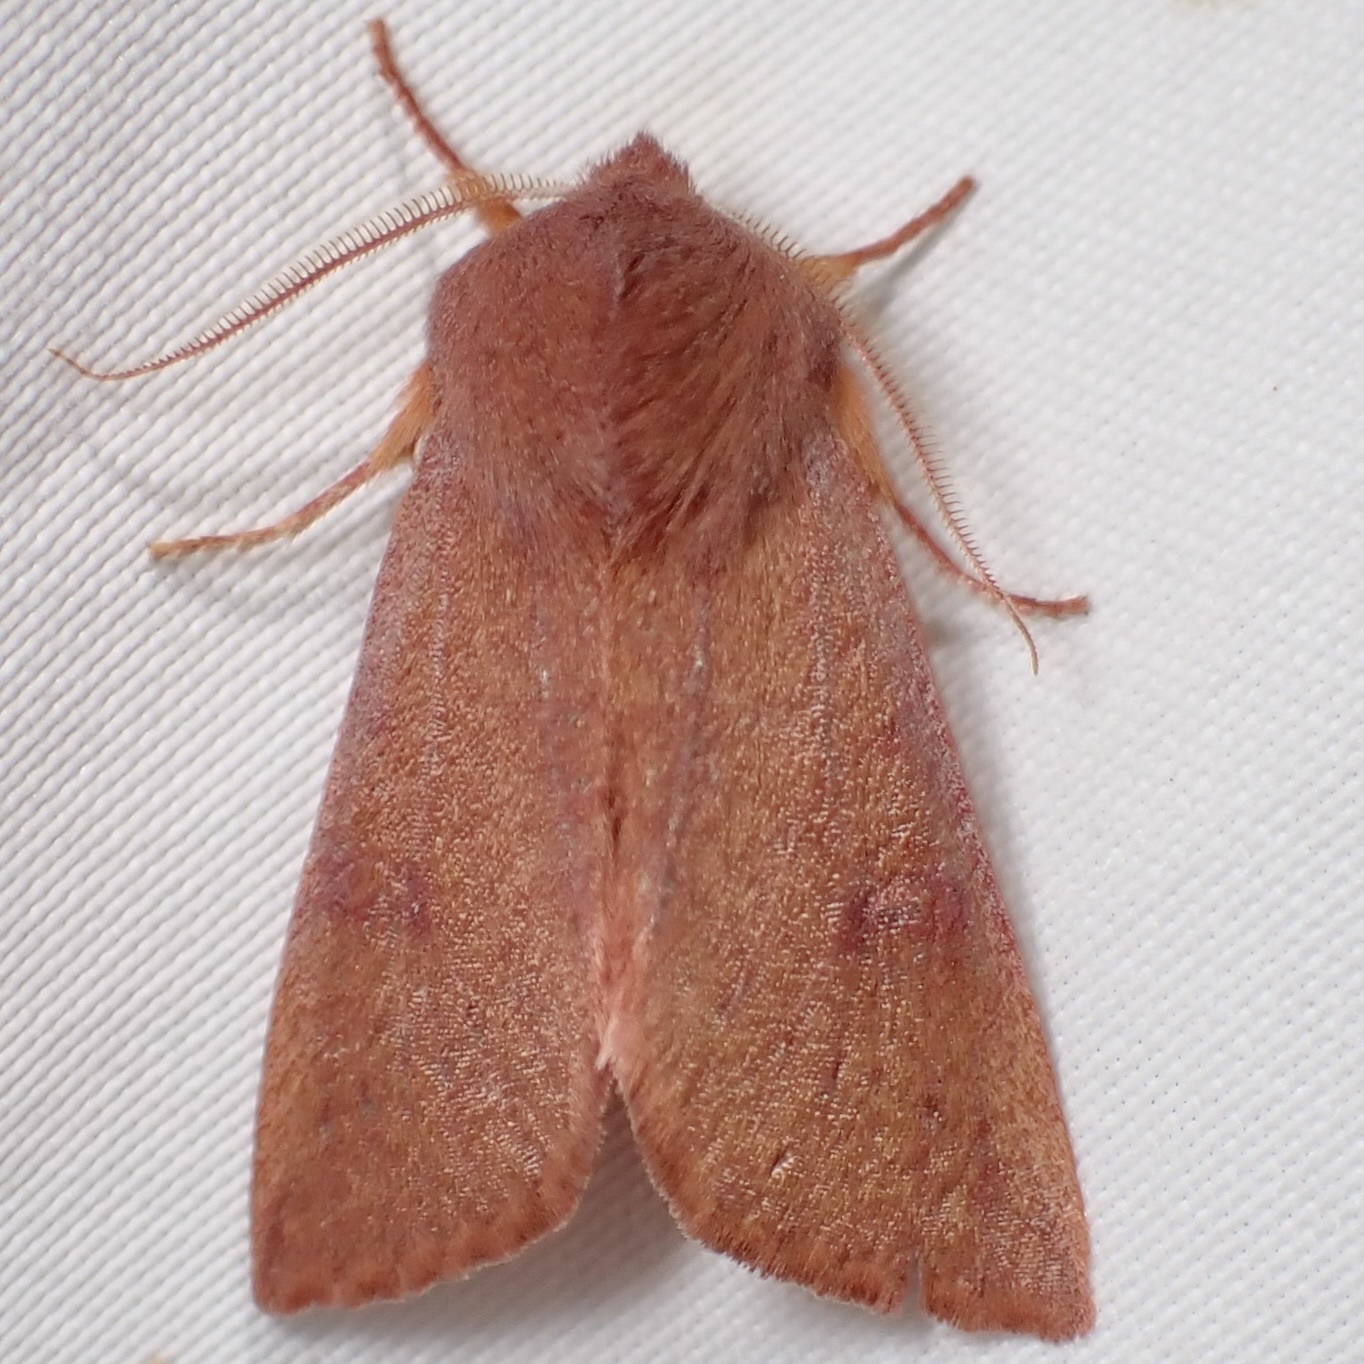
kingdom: Animalia
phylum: Arthropoda
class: Insecta
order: Lepidoptera
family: Noctuidae
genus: Orthosia
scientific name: Orthosia mys
